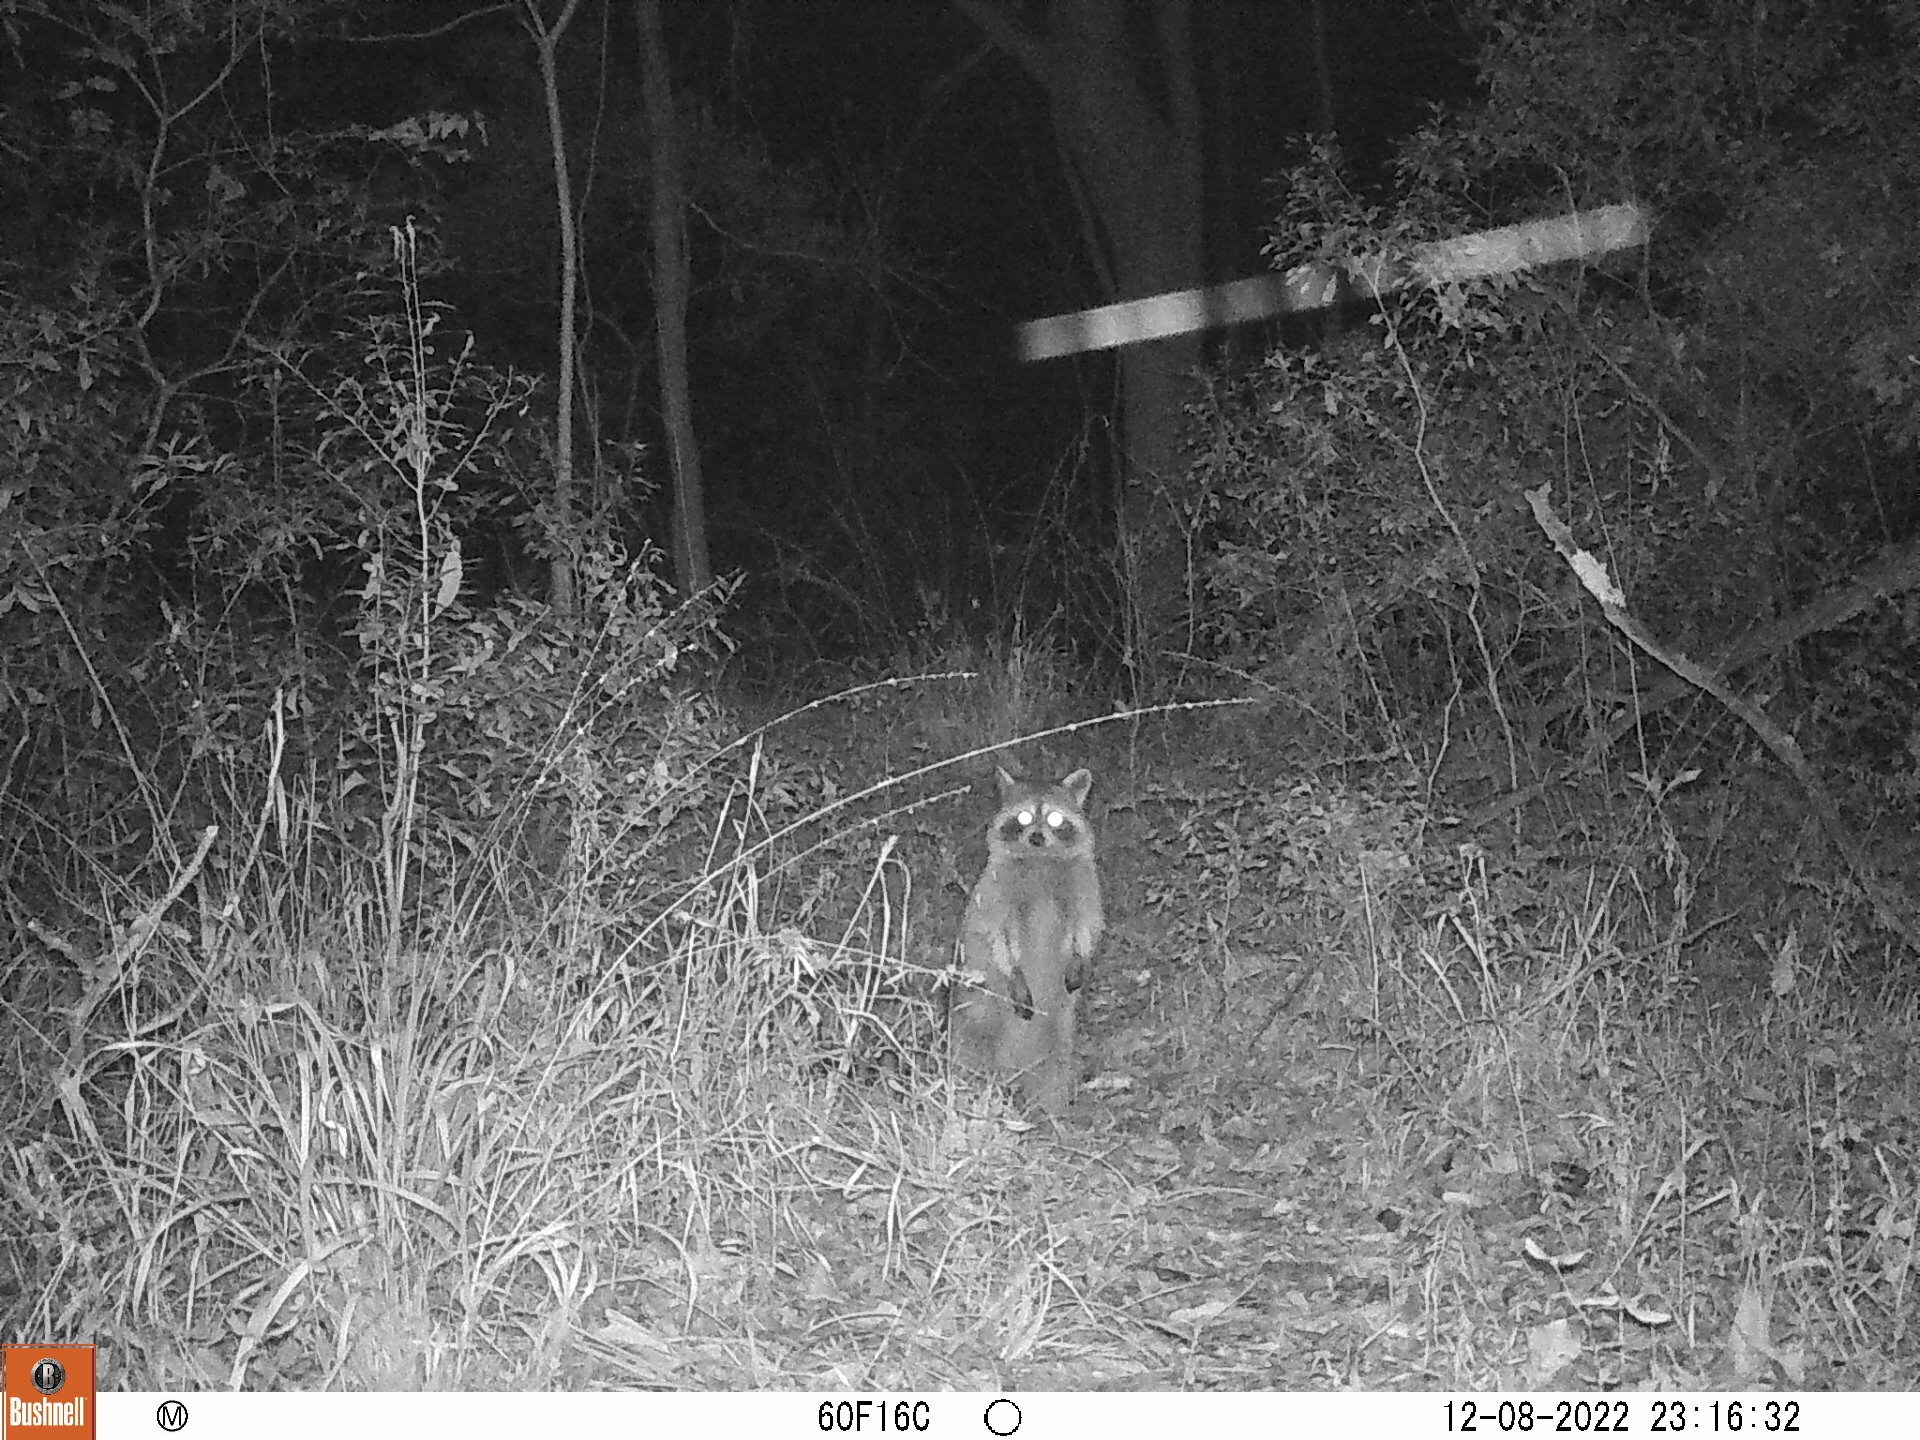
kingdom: Animalia
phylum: Chordata
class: Mammalia
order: Carnivora
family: Procyonidae
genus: Procyon
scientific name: Procyon lotor
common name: Raccoon
